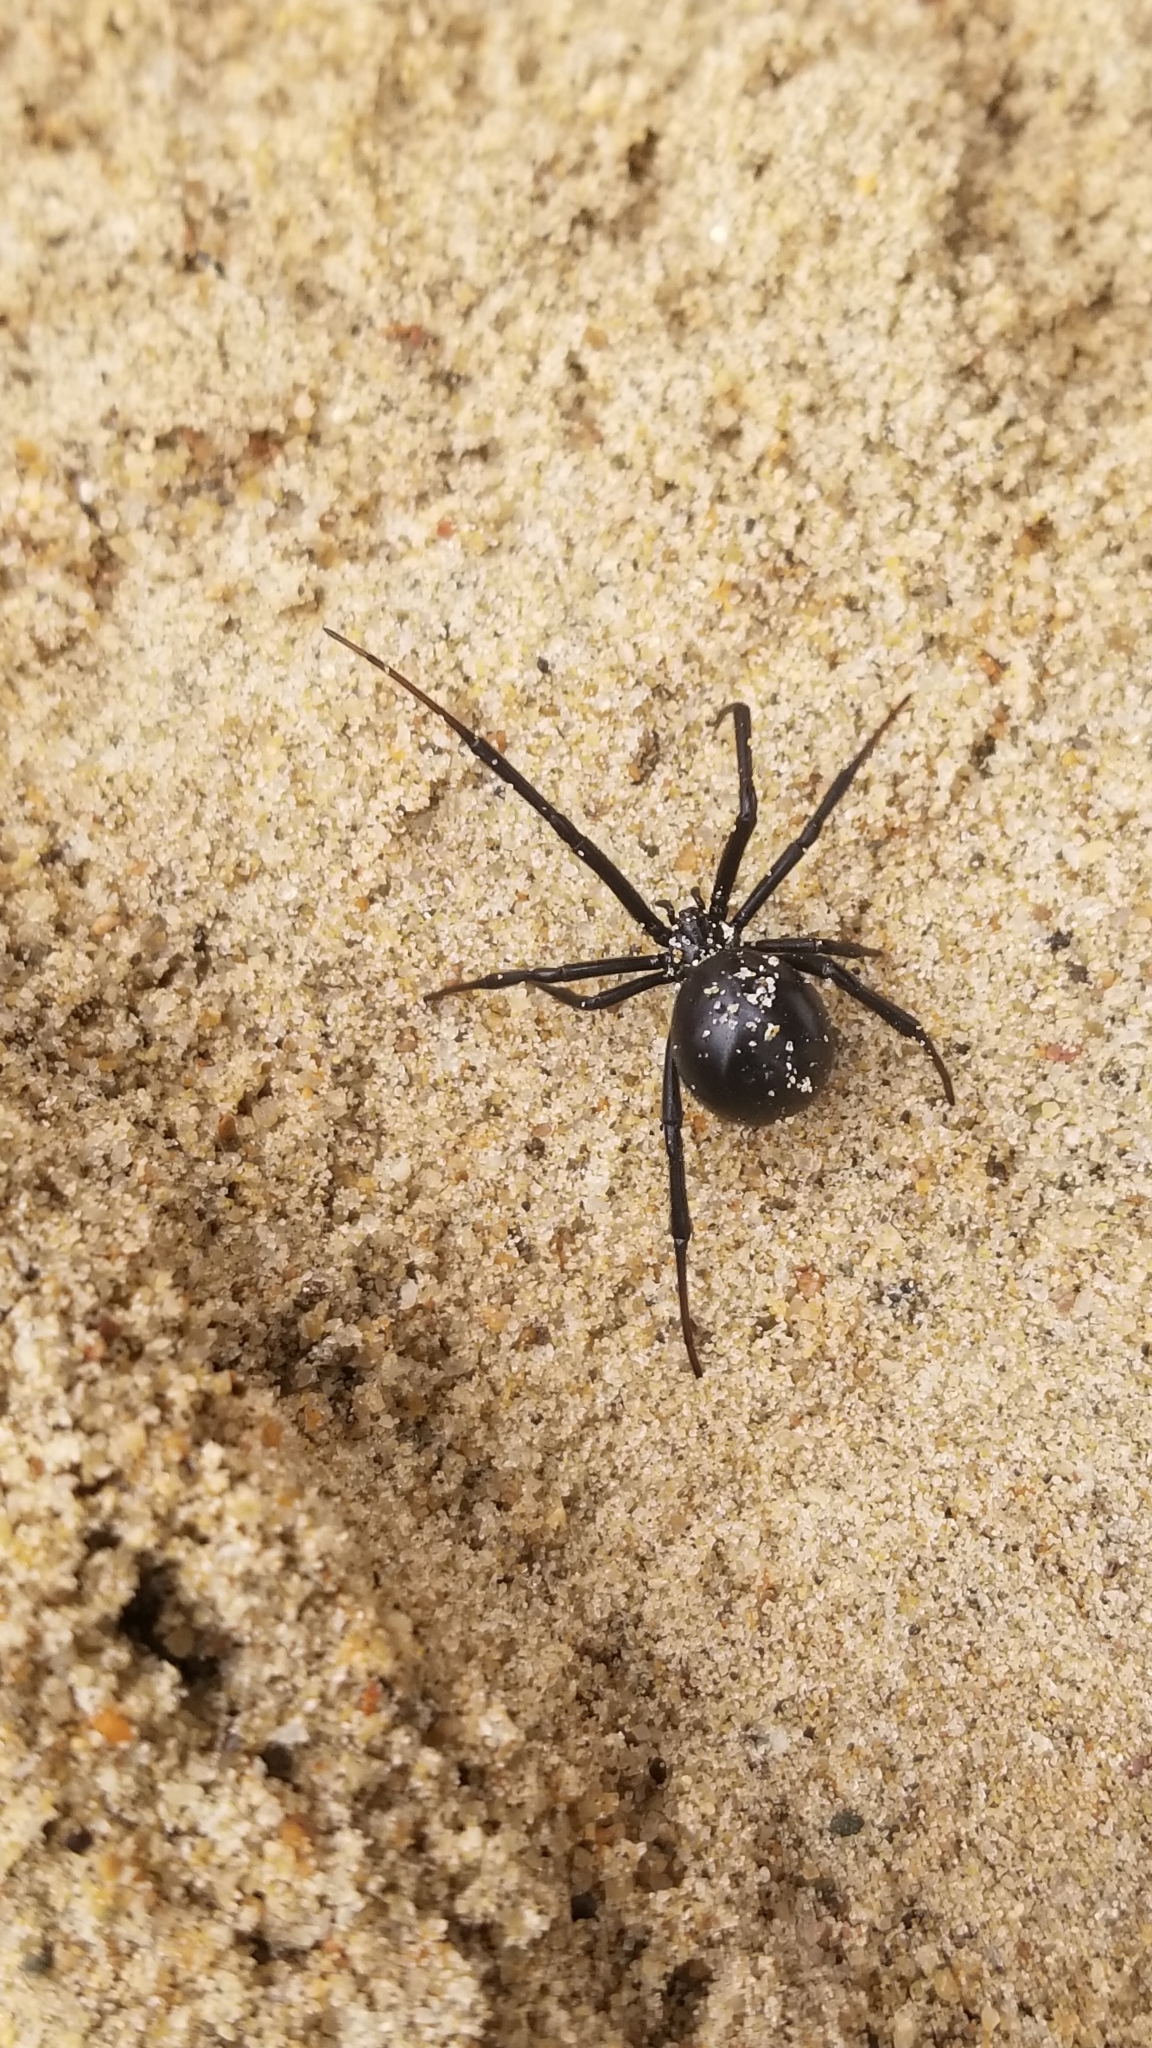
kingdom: Animalia
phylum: Arthropoda
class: Arachnida
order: Araneae
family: Theridiidae
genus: Latrodectus
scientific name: Latrodectus hesperus
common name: Western black widow
